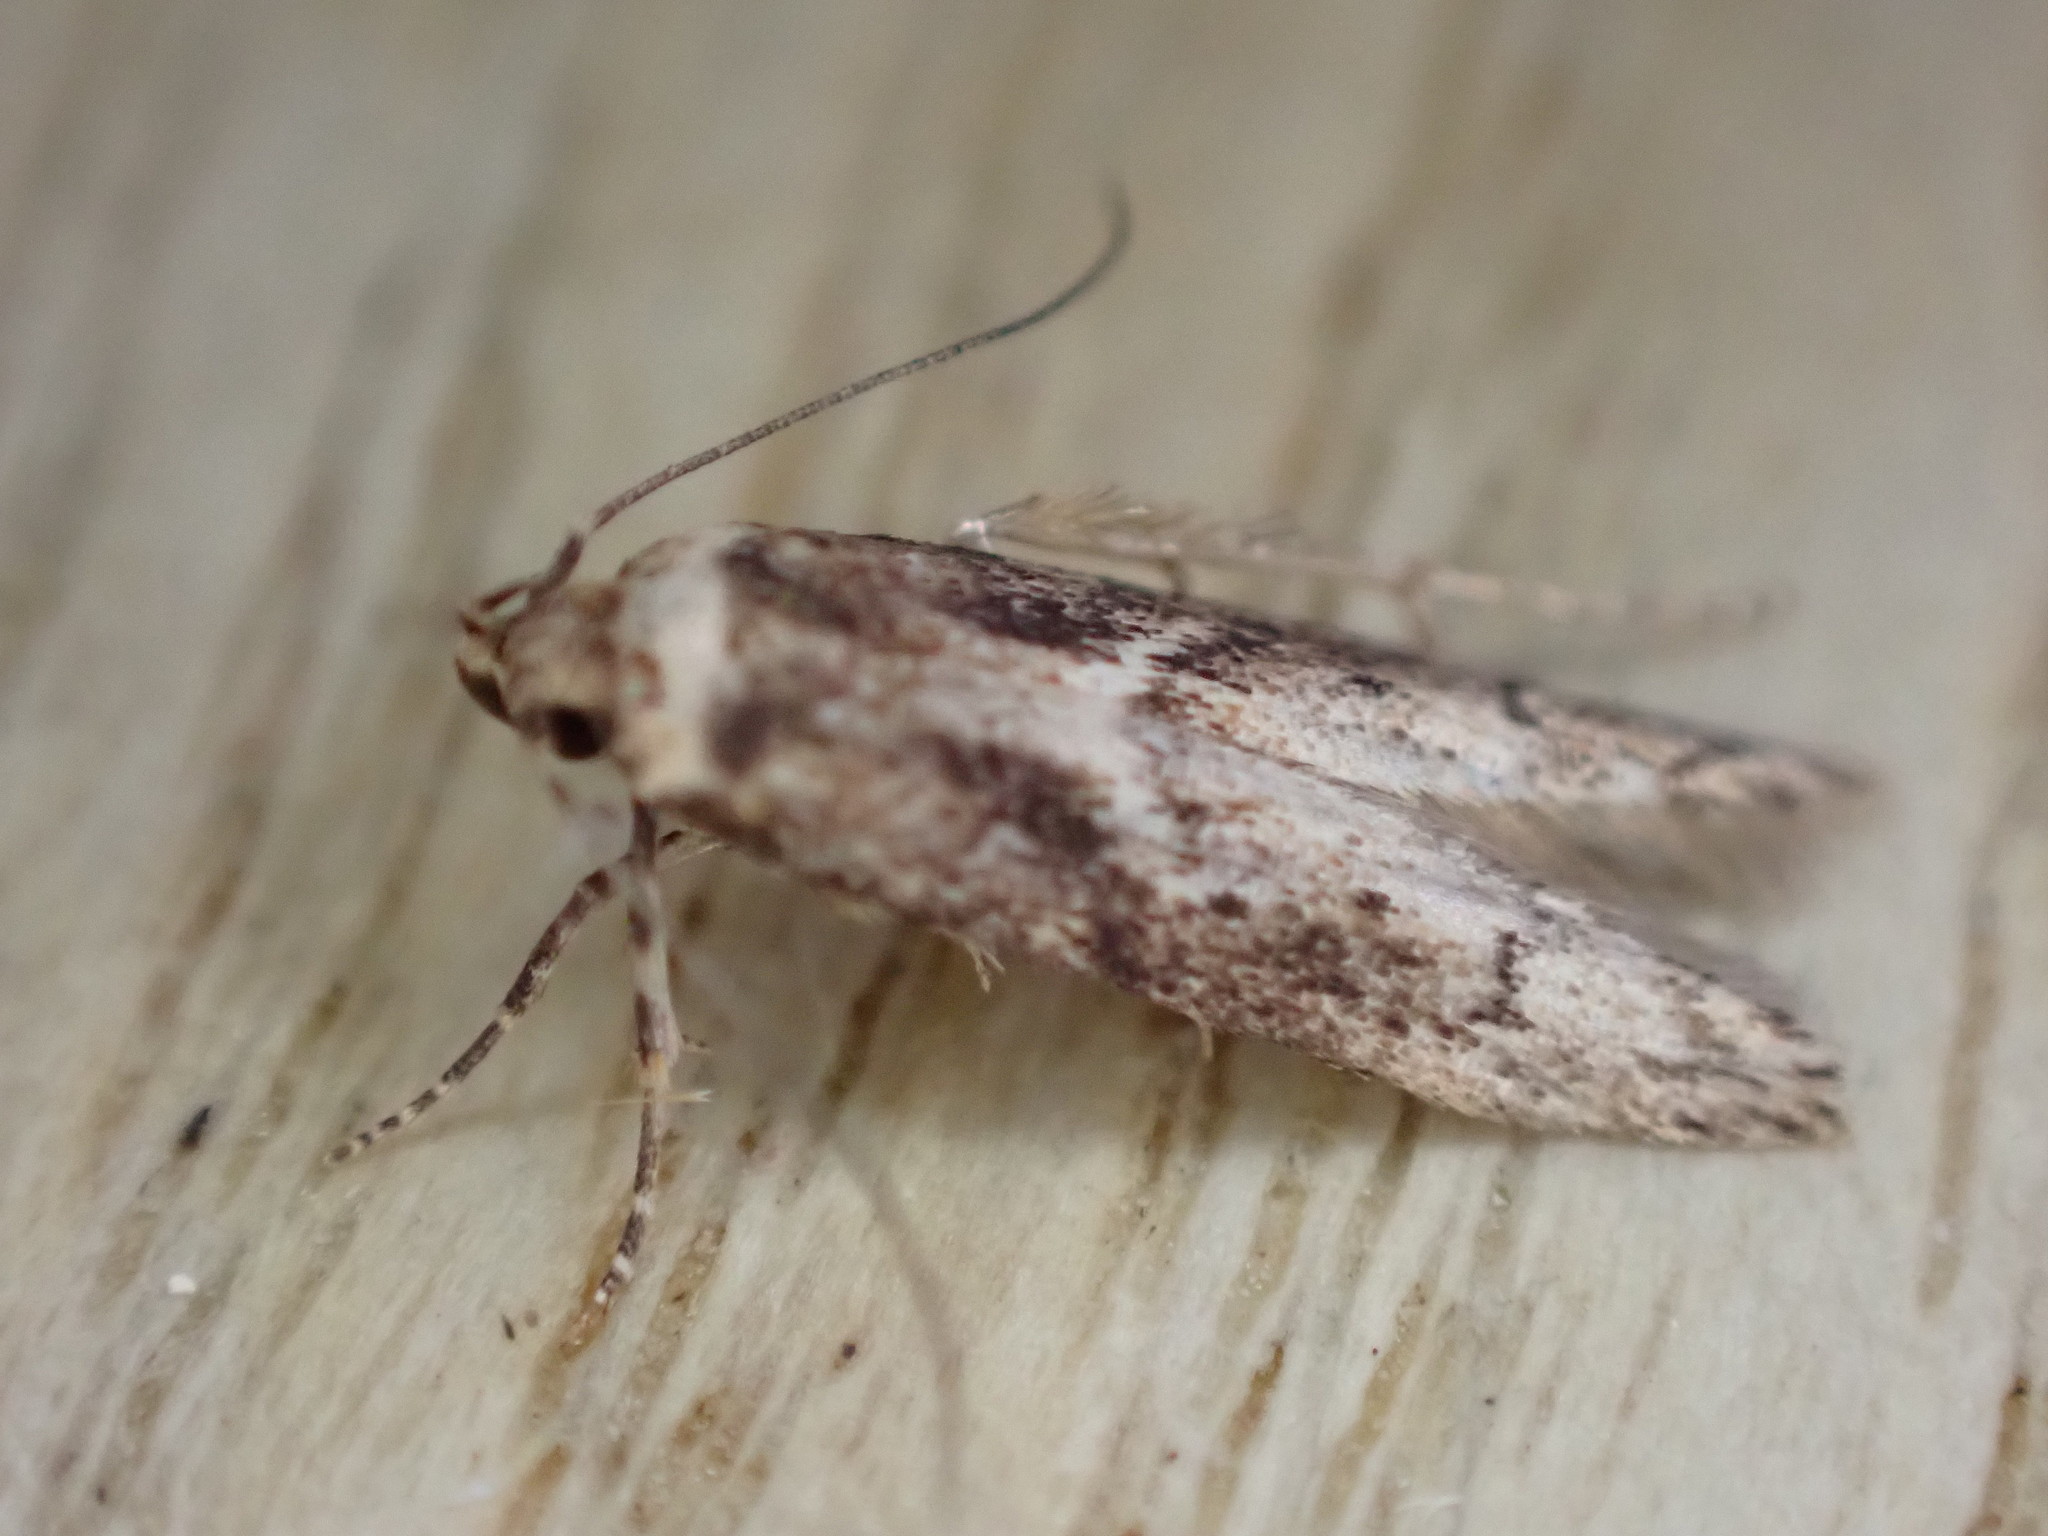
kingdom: Animalia
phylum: Arthropoda
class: Insecta
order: Lepidoptera
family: Blastobasidae
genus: Blastobasis
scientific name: Blastobasis adustella
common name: Dingy dowd
